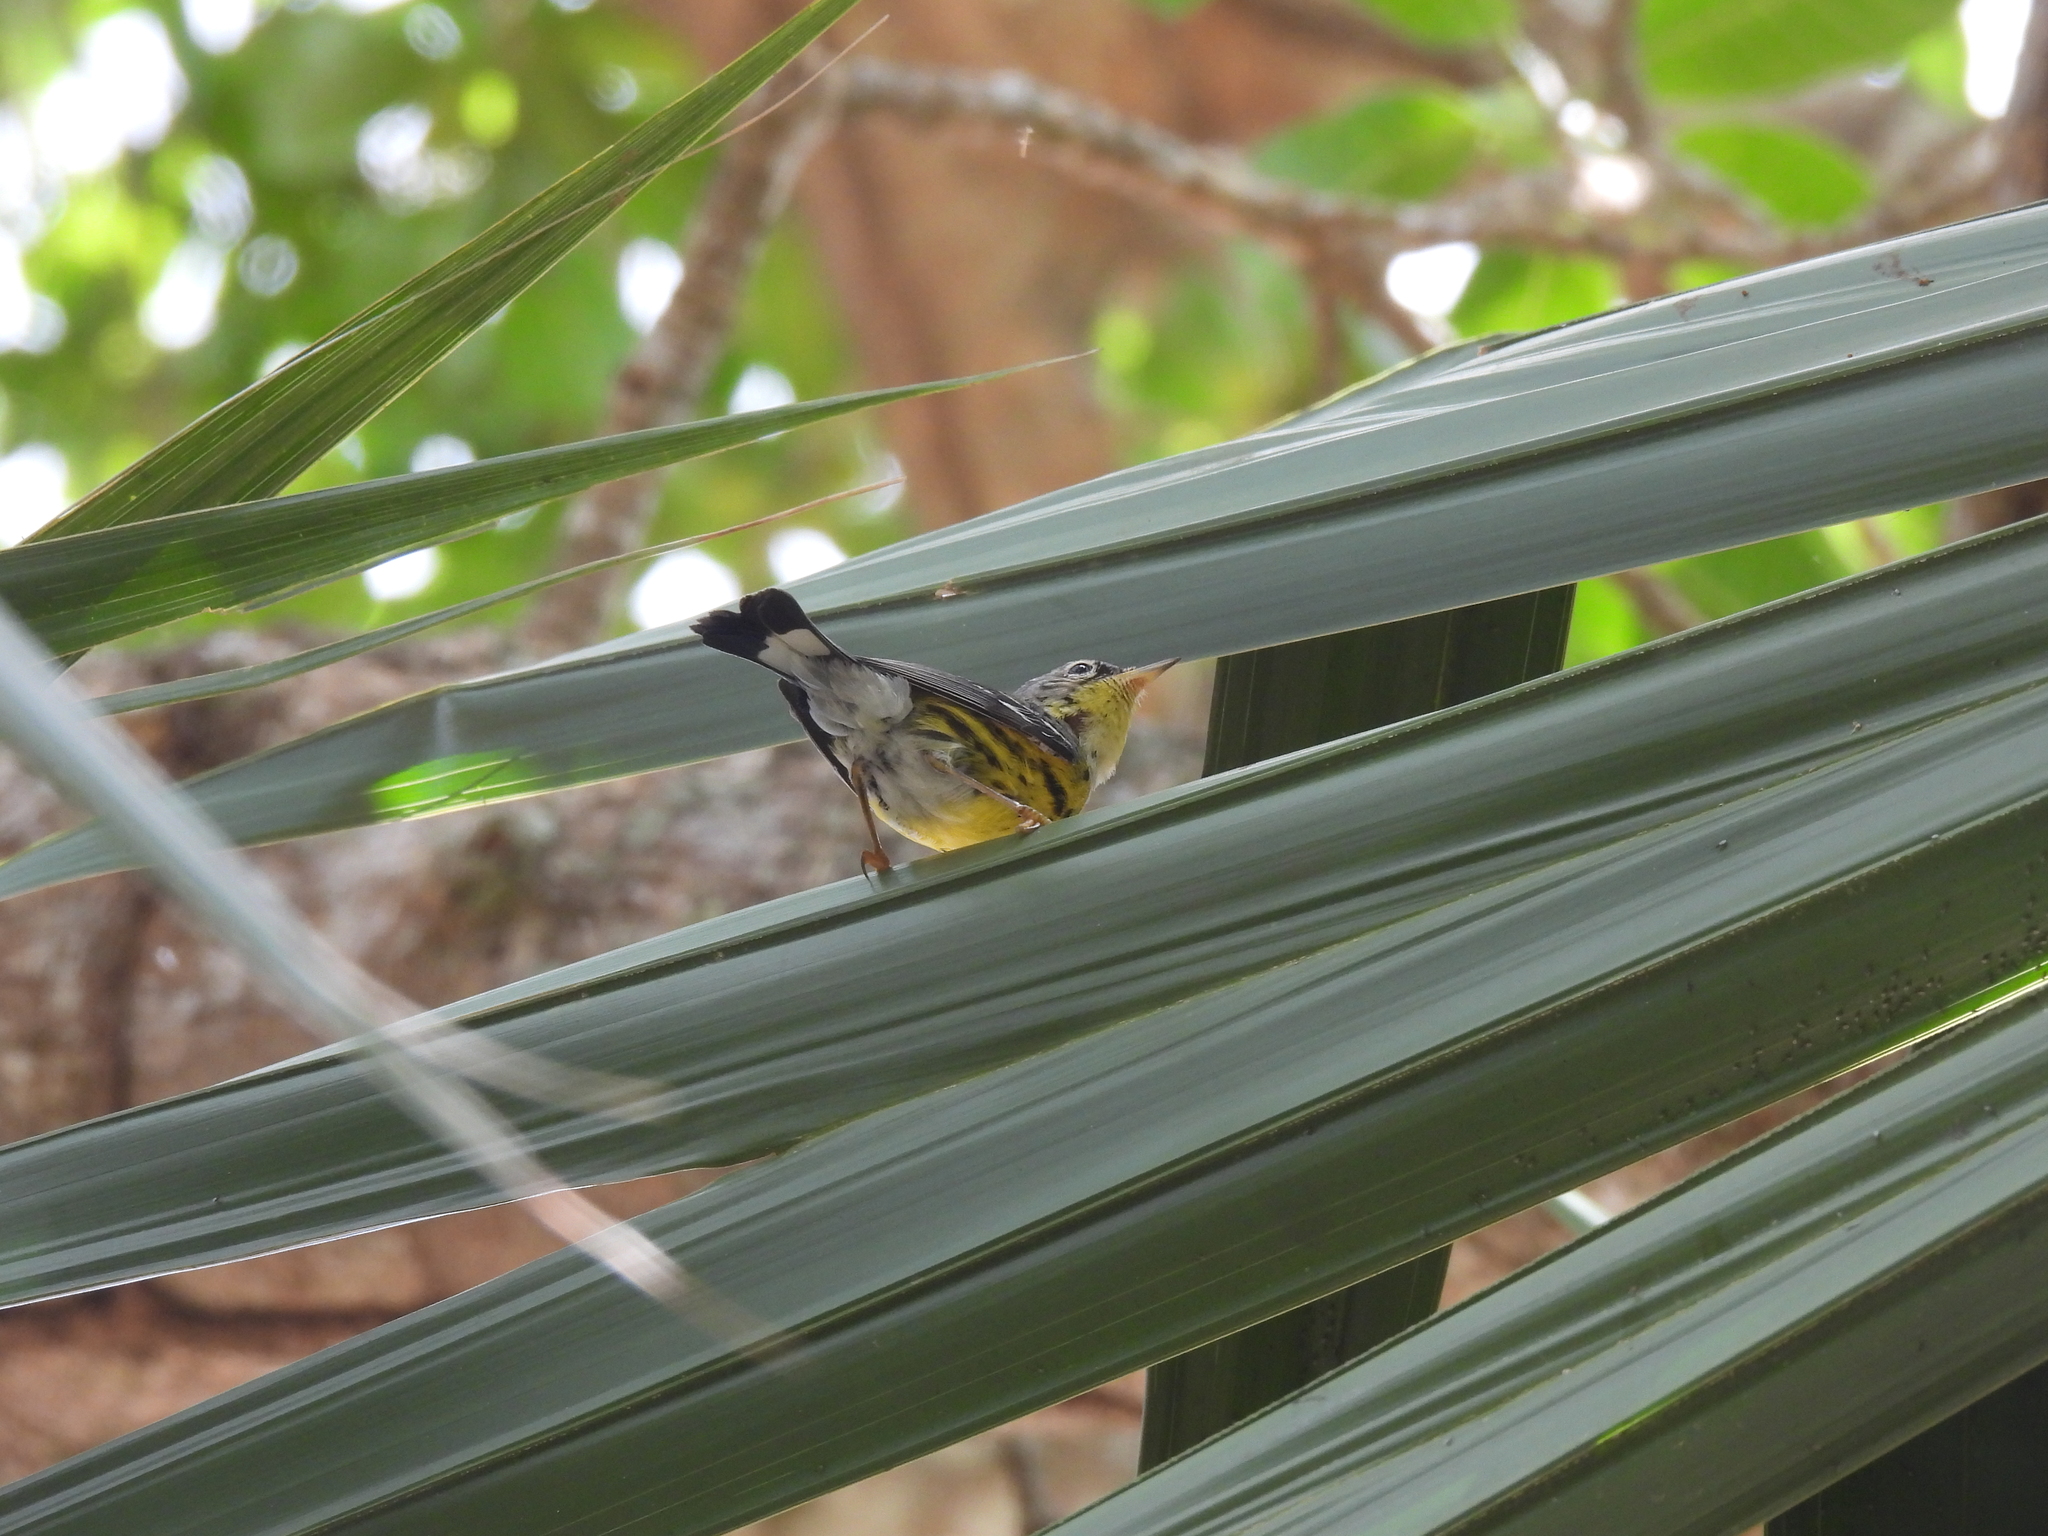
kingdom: Animalia
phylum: Chordata
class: Aves
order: Passeriformes
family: Parulidae
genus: Setophaga
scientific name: Setophaga magnolia
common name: Magnolia warbler
